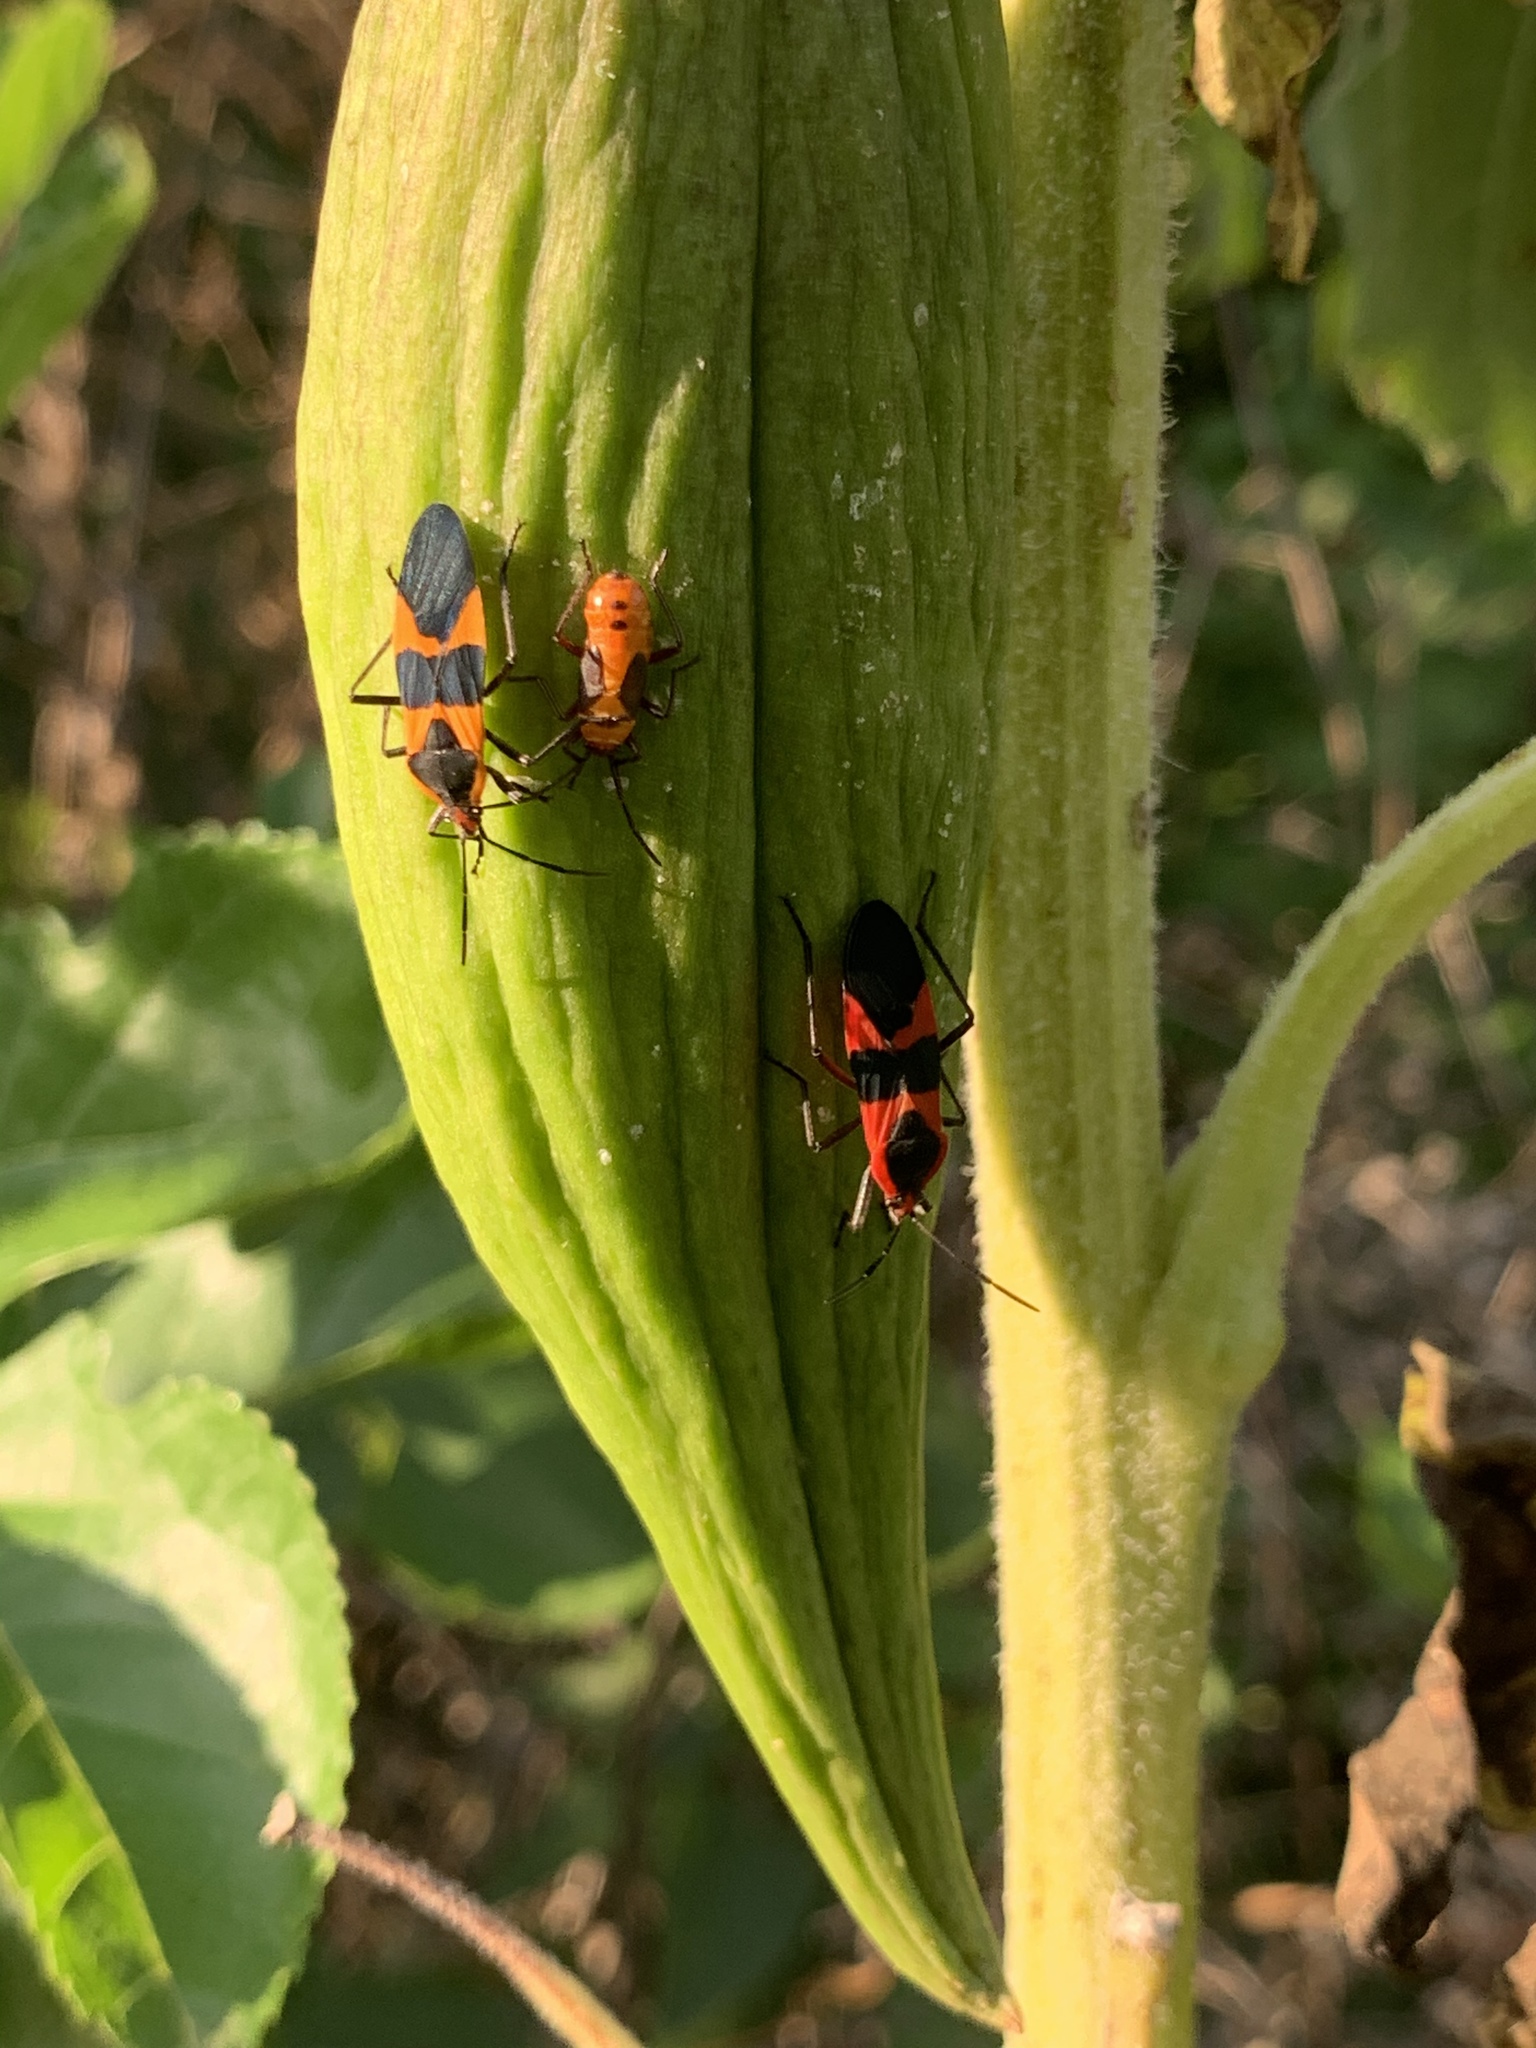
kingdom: Animalia
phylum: Arthropoda
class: Insecta
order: Hemiptera
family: Lygaeidae
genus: Oncopeltus
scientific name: Oncopeltus fasciatus
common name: Large milkweed bug
